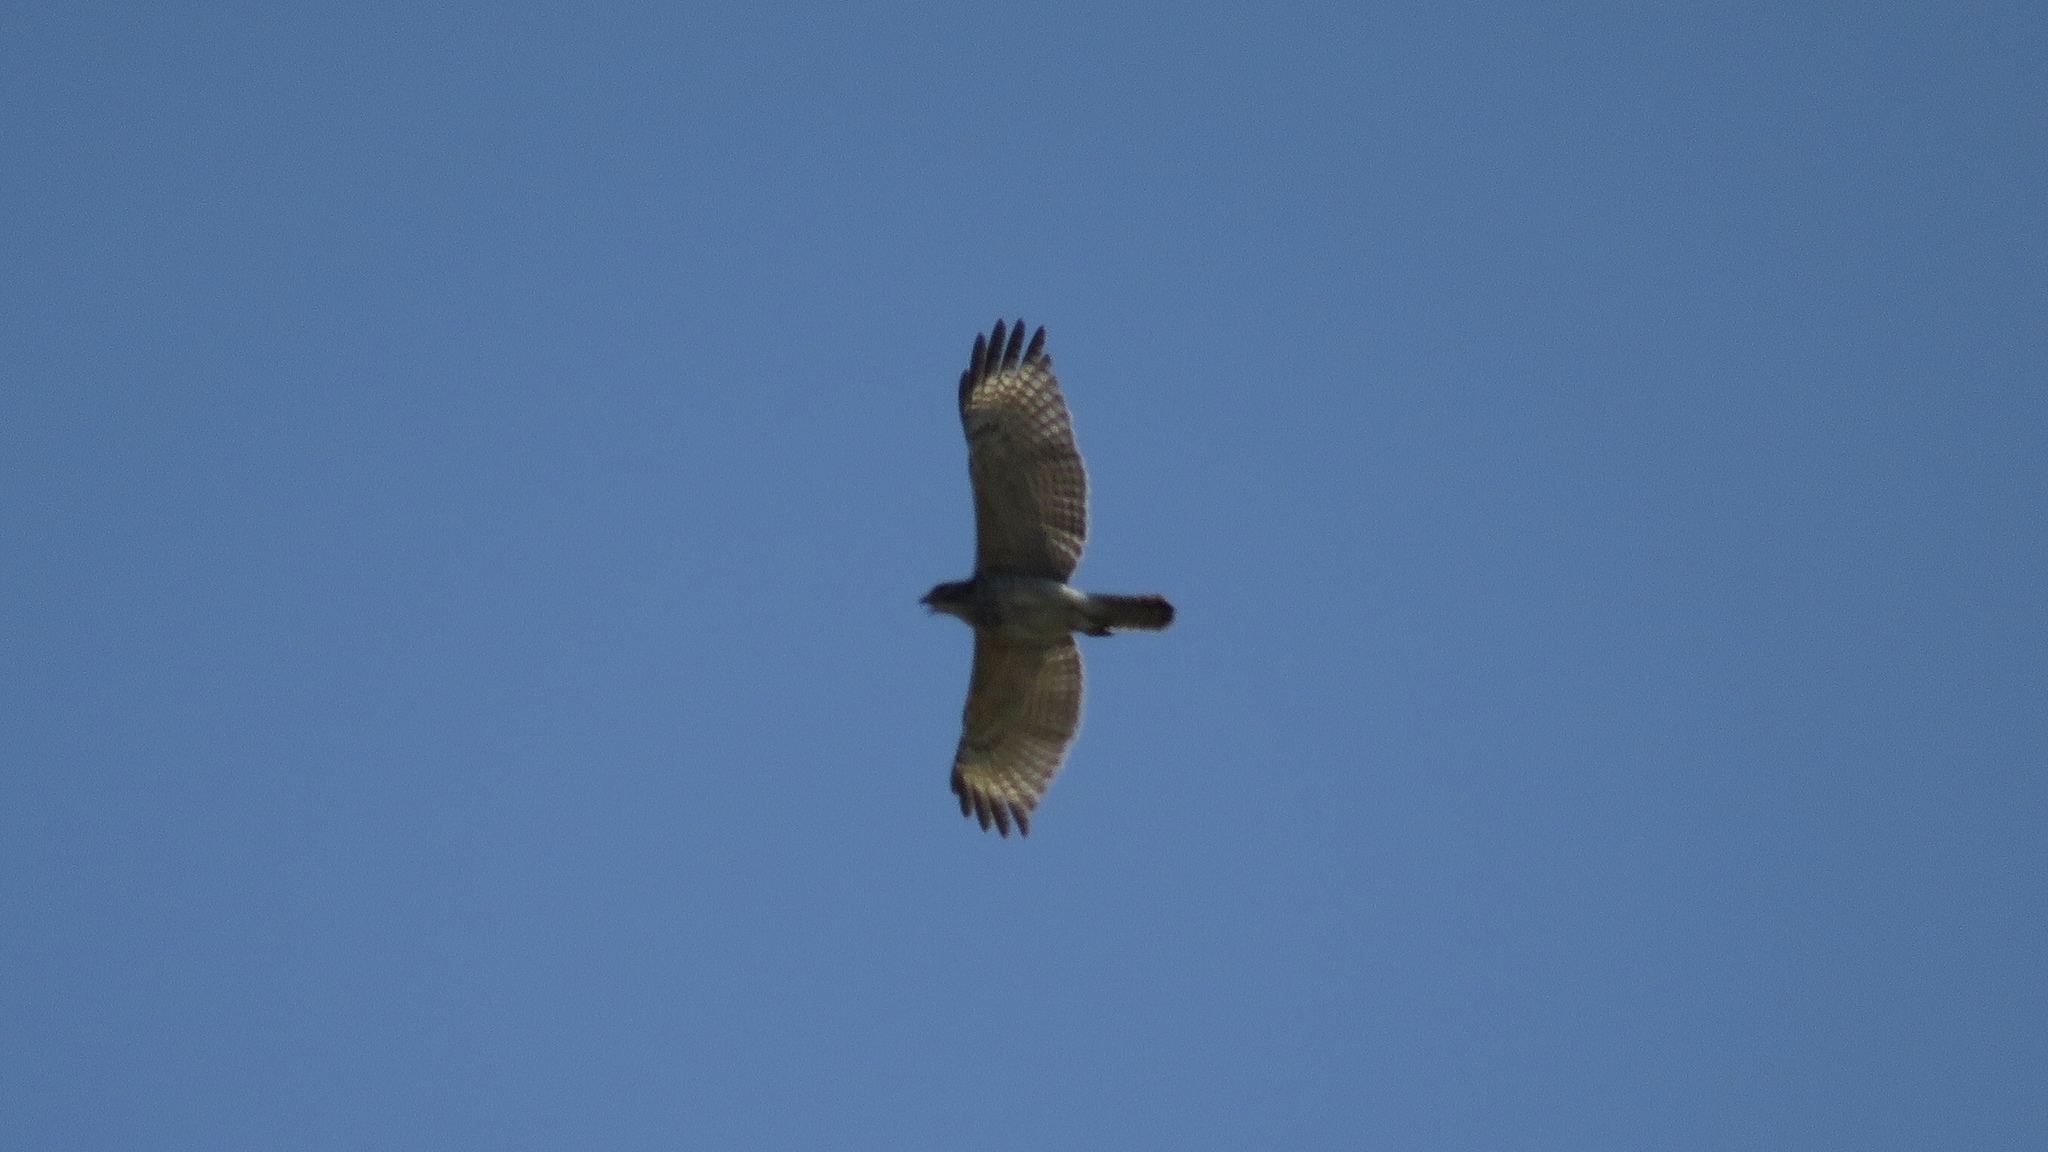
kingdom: Animalia
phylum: Chordata
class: Aves
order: Accipitriformes
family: Accipitridae
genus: Buteo
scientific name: Buteo lineatus
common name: Red-shouldered hawk
